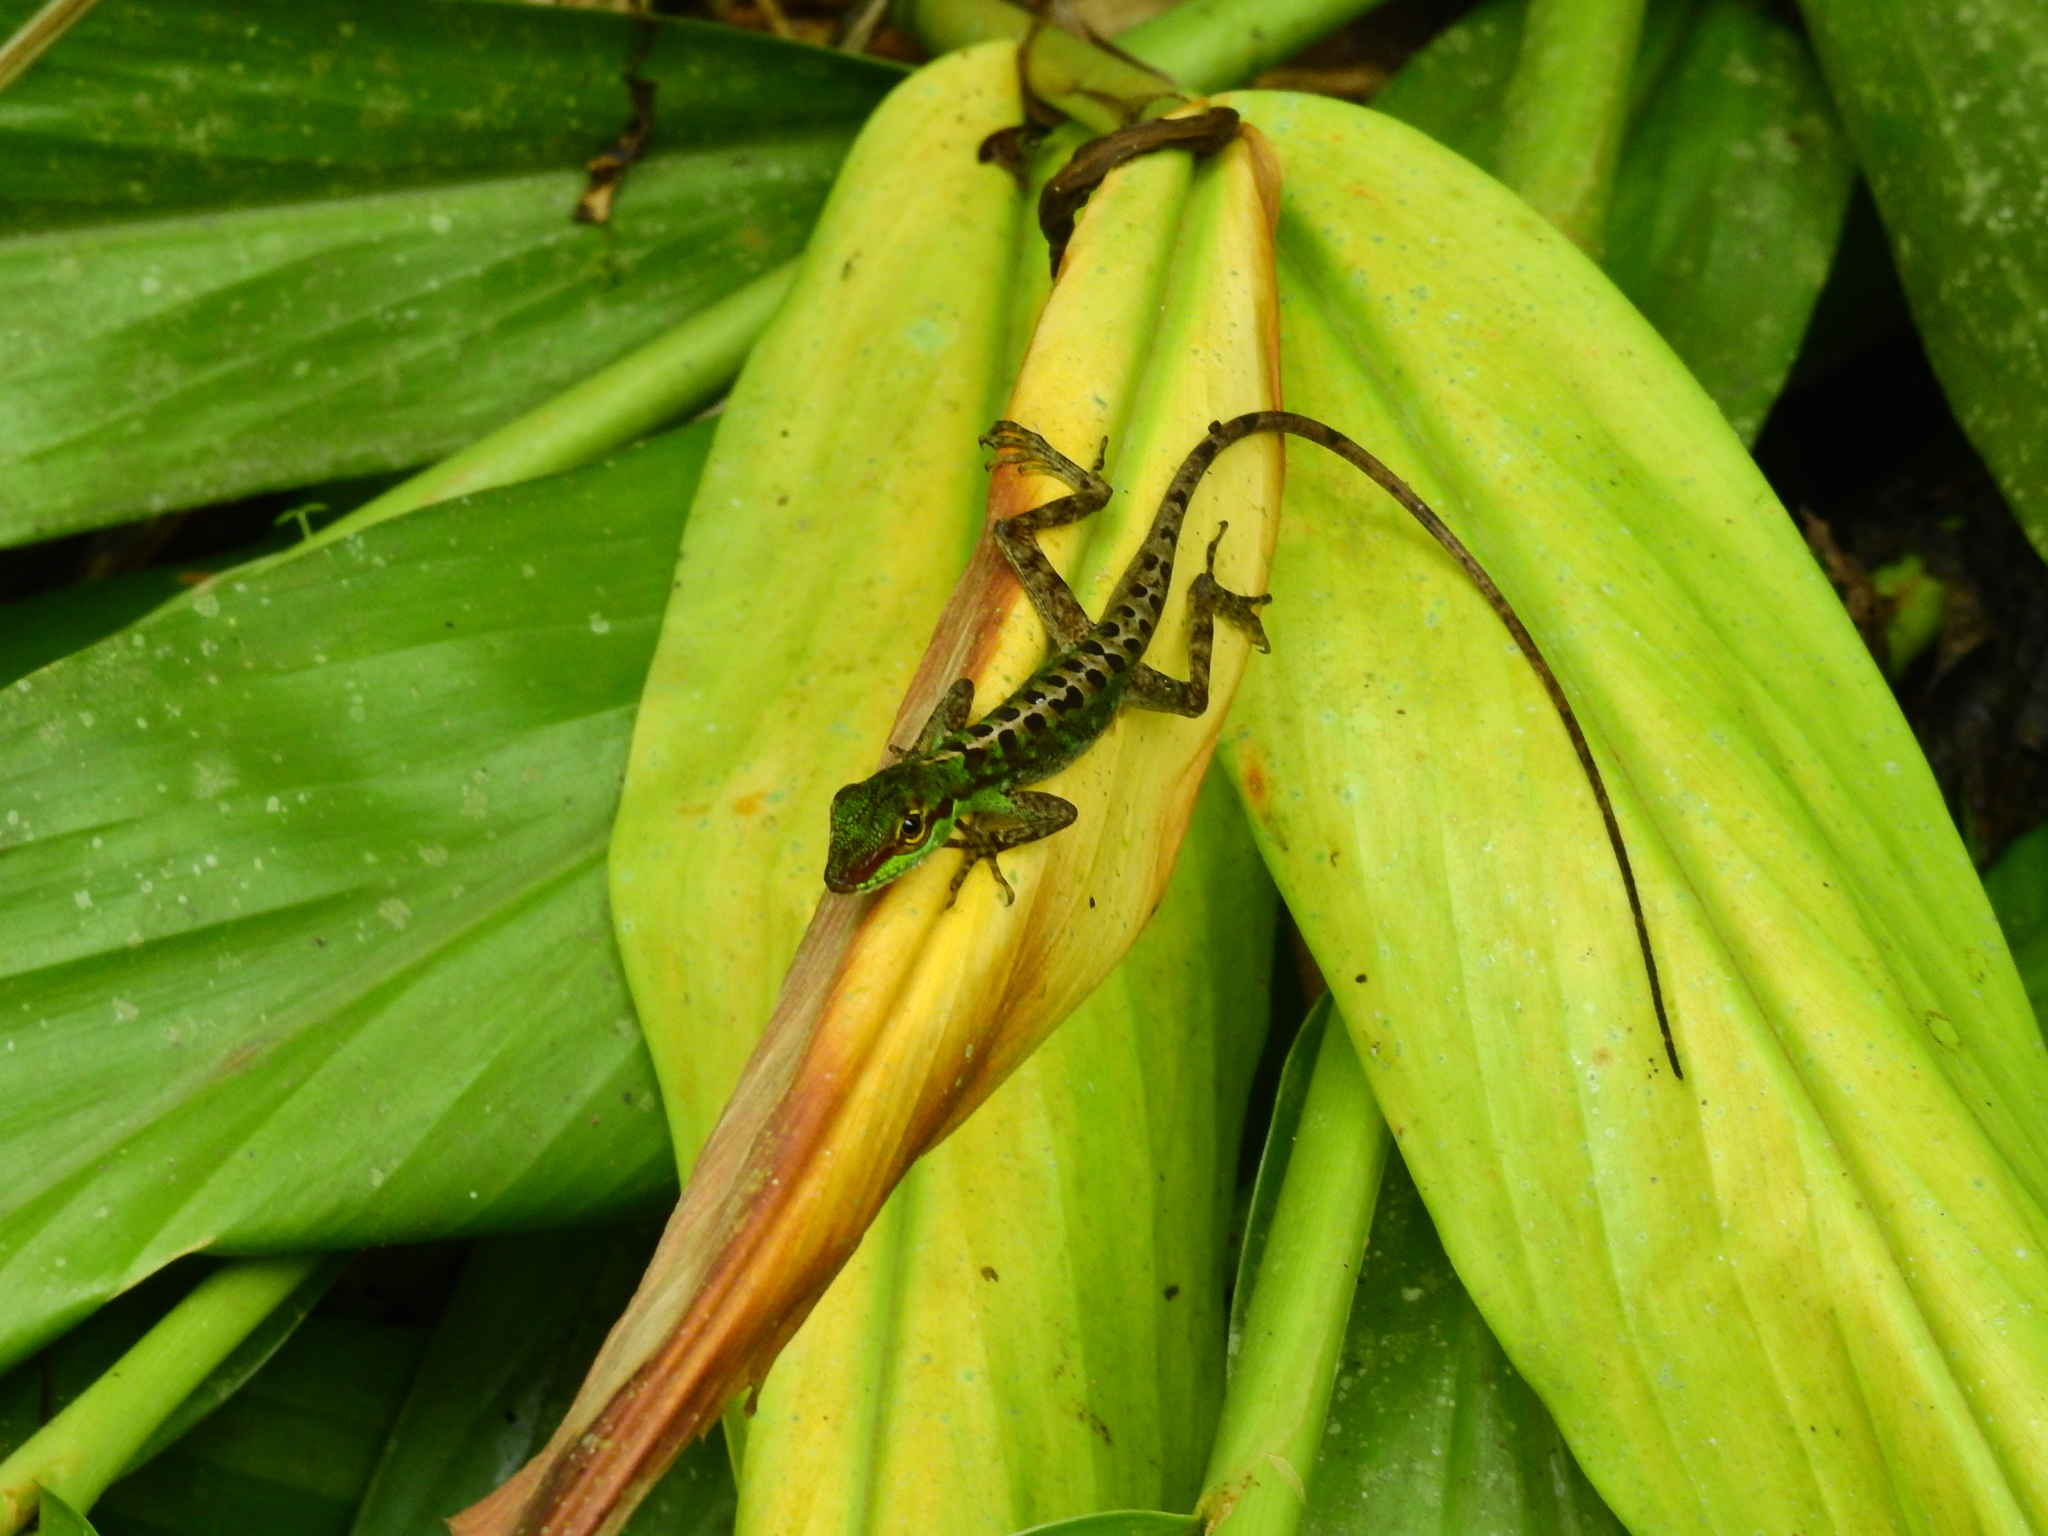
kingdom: Animalia
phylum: Chordata
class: Squamata
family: Dactyloidae
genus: Anolis
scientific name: Anolis ventrimaculatus
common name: Speckled anole
